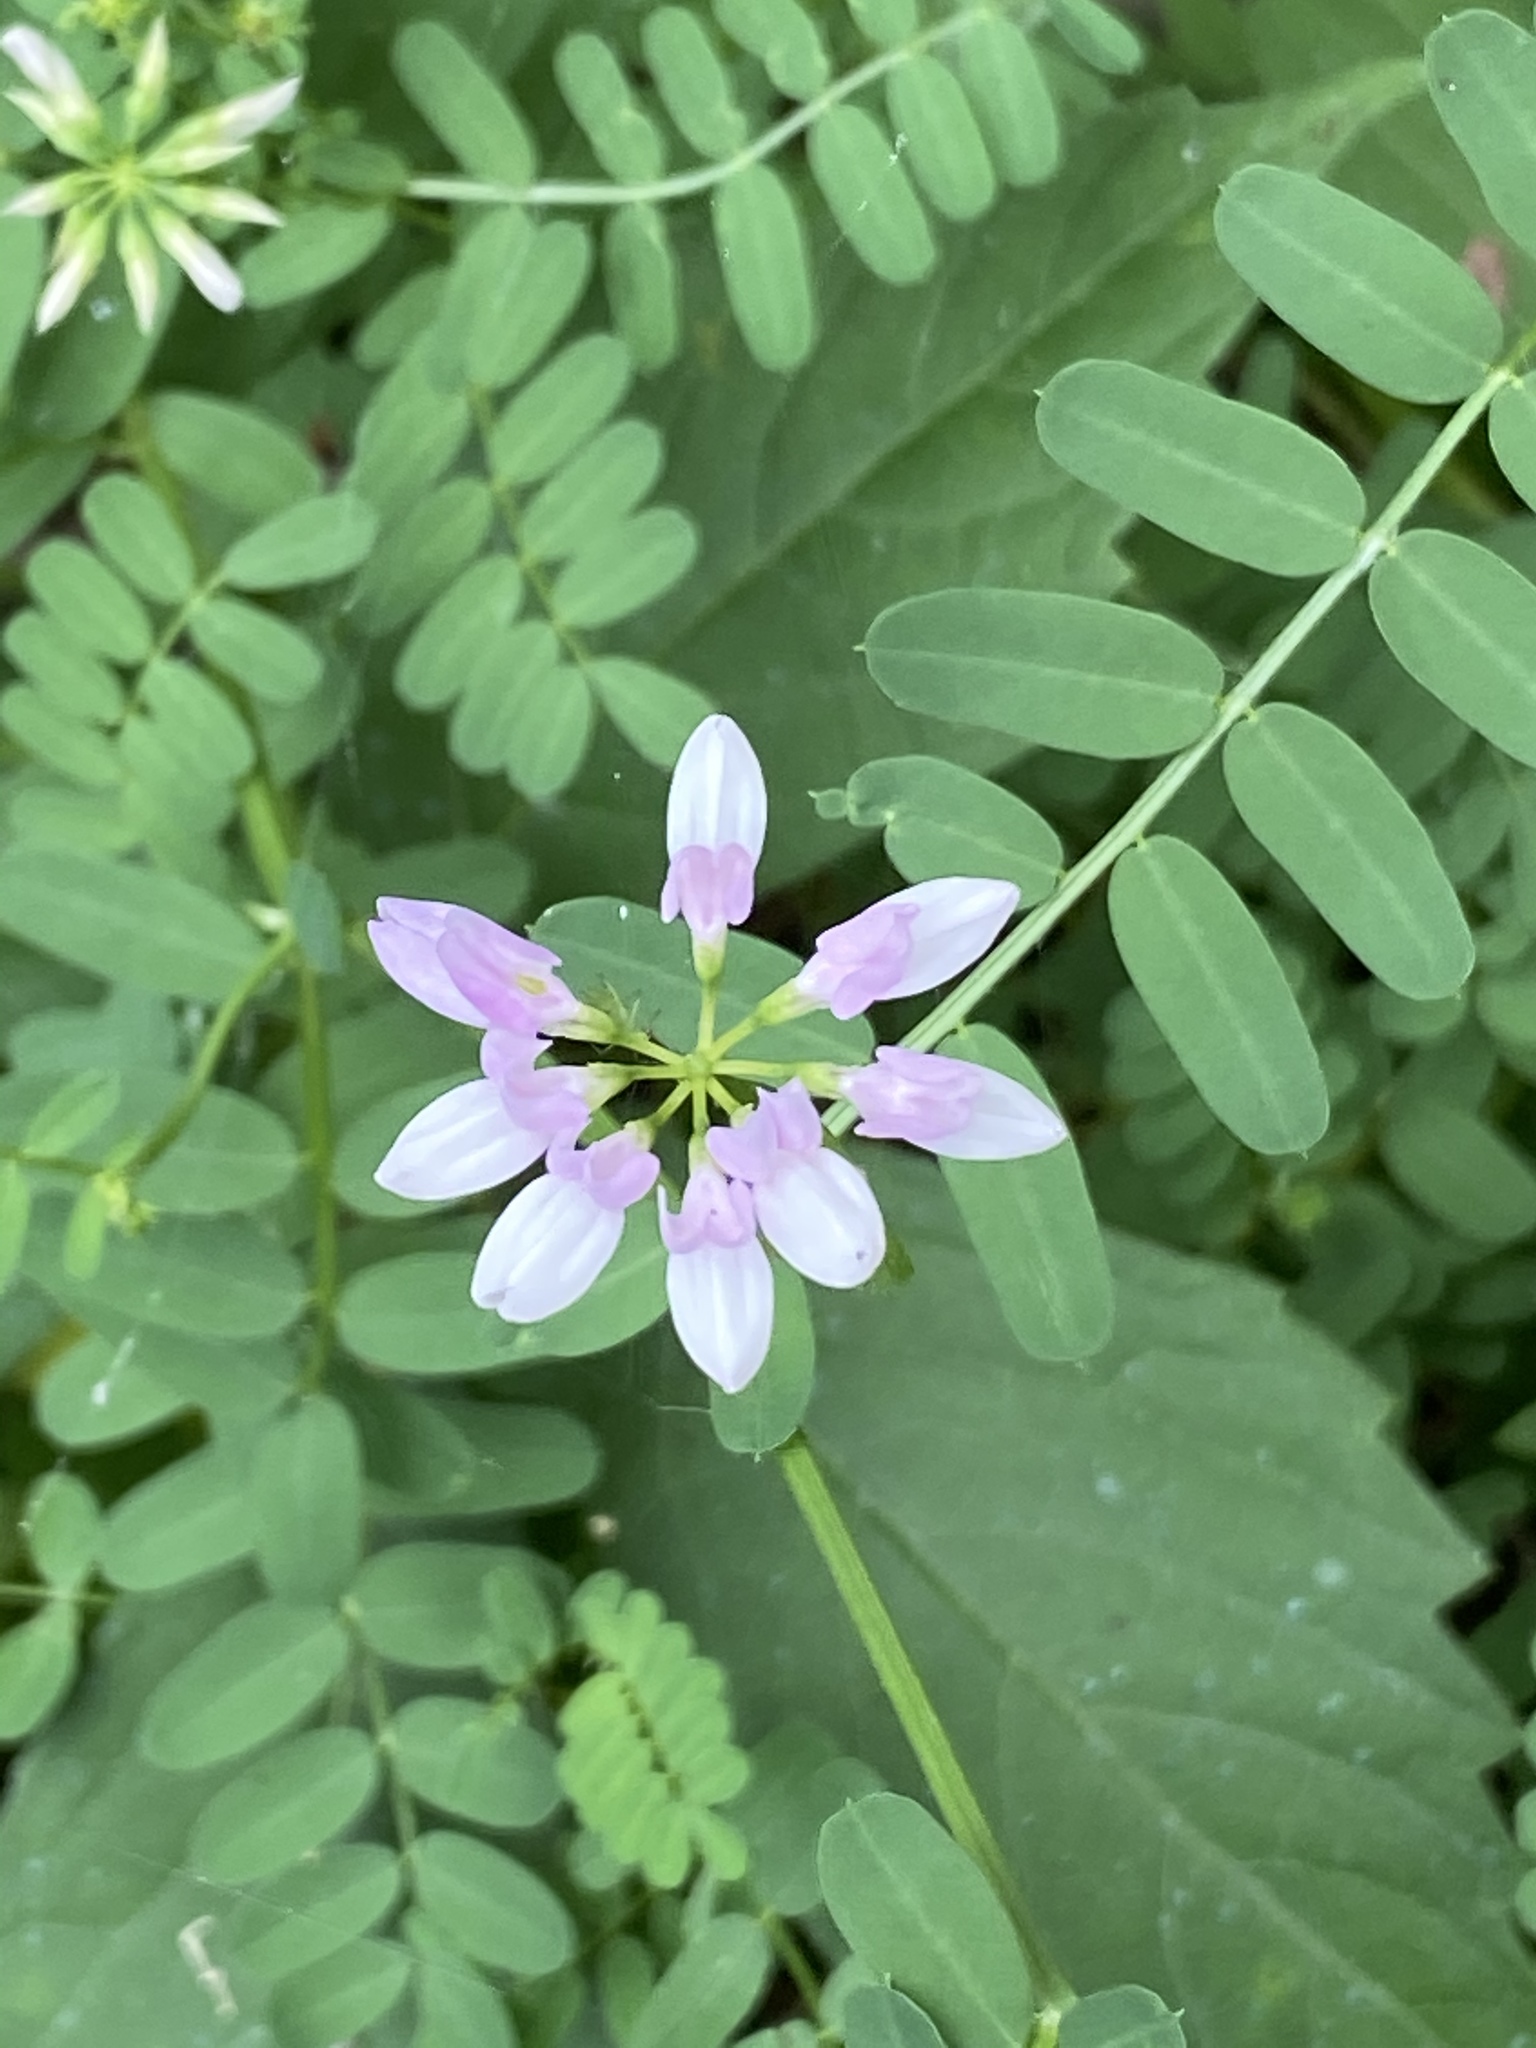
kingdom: Plantae
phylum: Tracheophyta
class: Magnoliopsida
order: Fabales
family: Fabaceae
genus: Coronilla
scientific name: Coronilla varia
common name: Crownvetch
